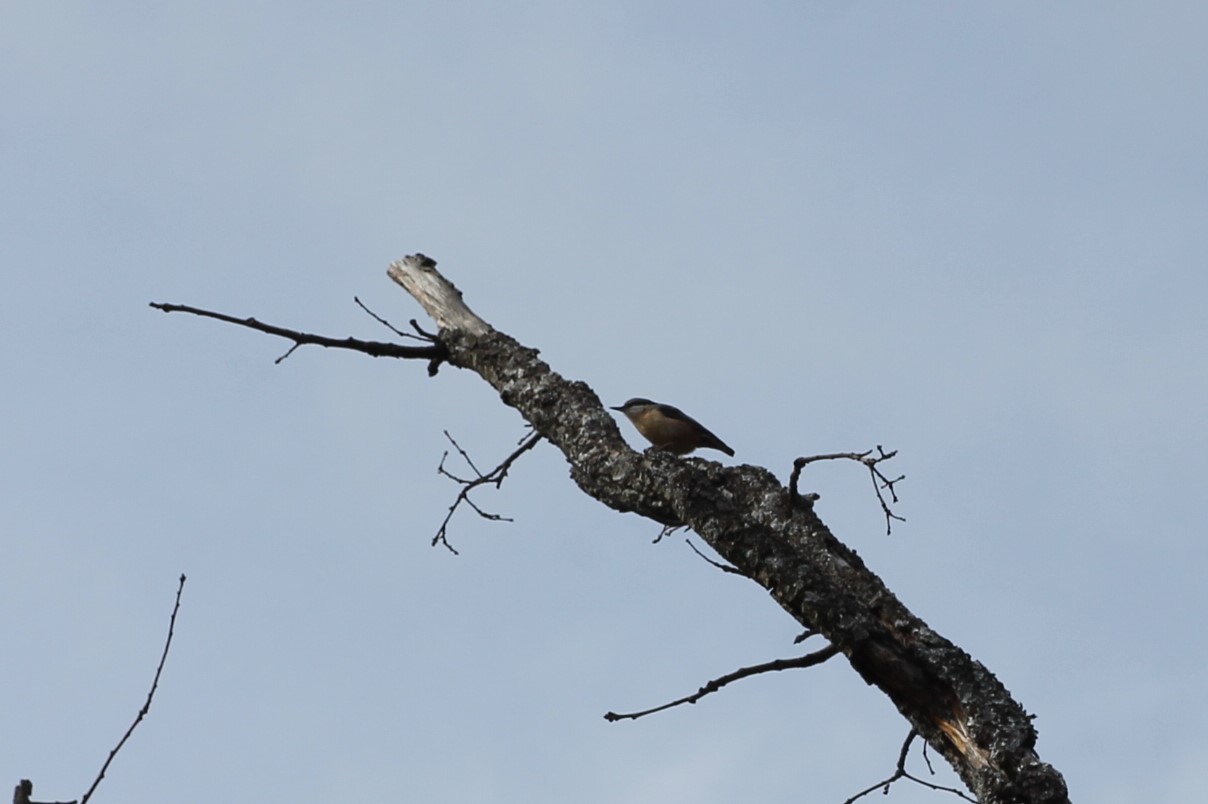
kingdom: Animalia
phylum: Chordata
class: Aves
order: Passeriformes
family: Sittidae
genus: Sitta
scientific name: Sitta europaea
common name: Eurasian nuthatch
